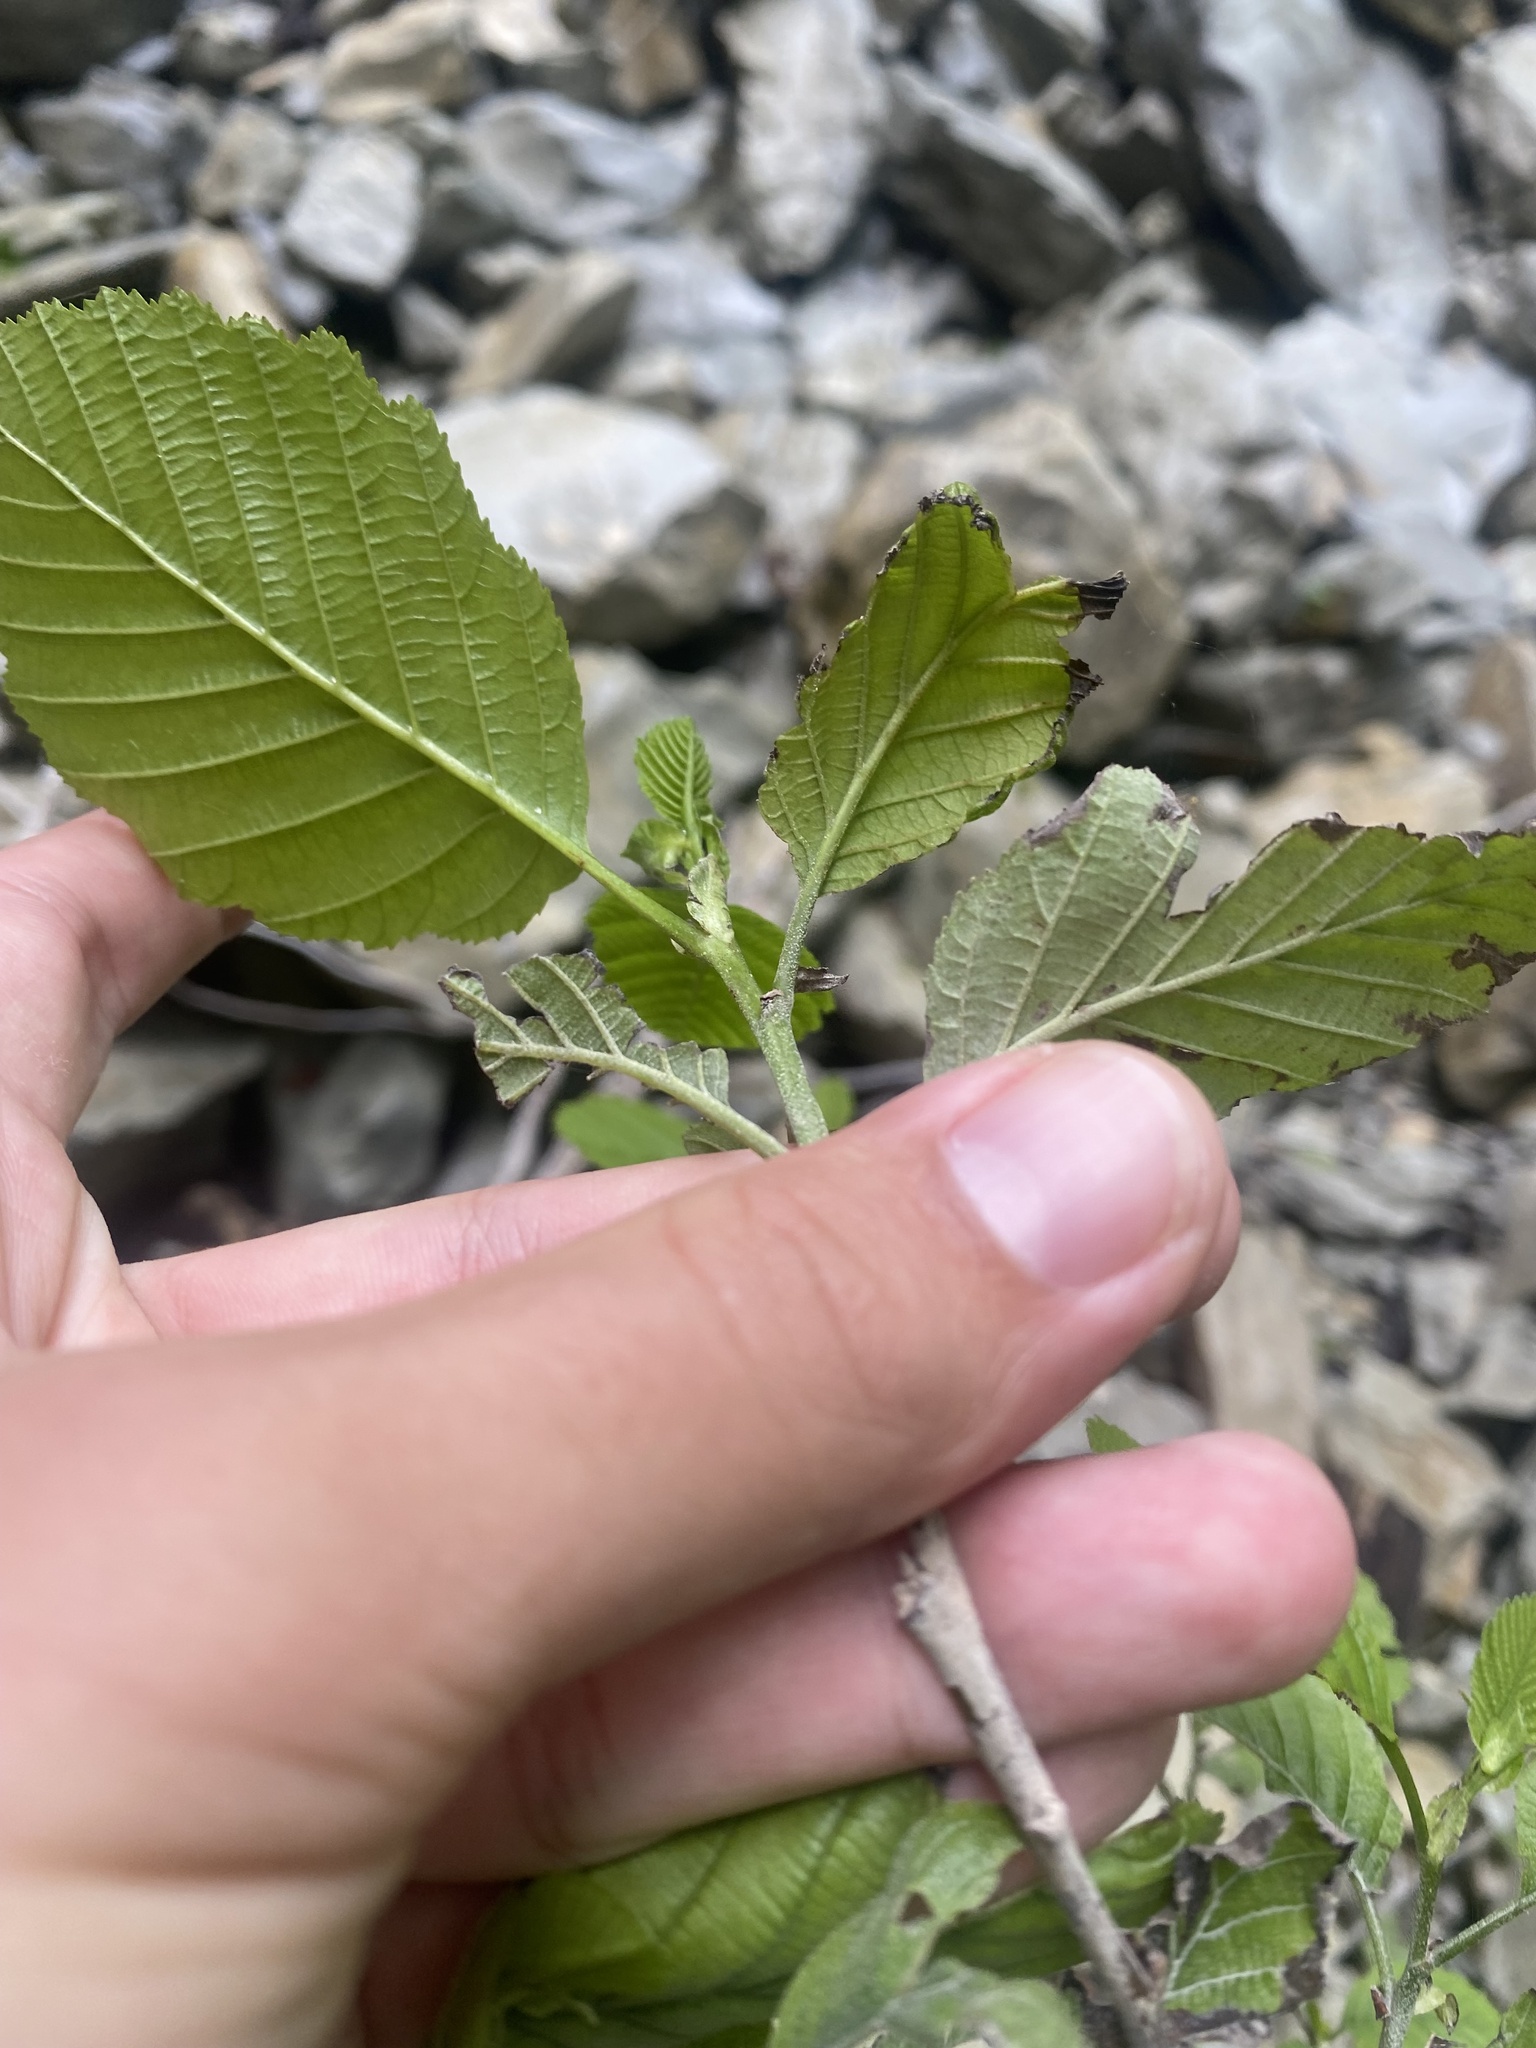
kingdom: Plantae
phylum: Tracheophyta
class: Magnoliopsida
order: Fagales
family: Betulaceae
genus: Alnus
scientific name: Alnus glutinosa
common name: Black alder
